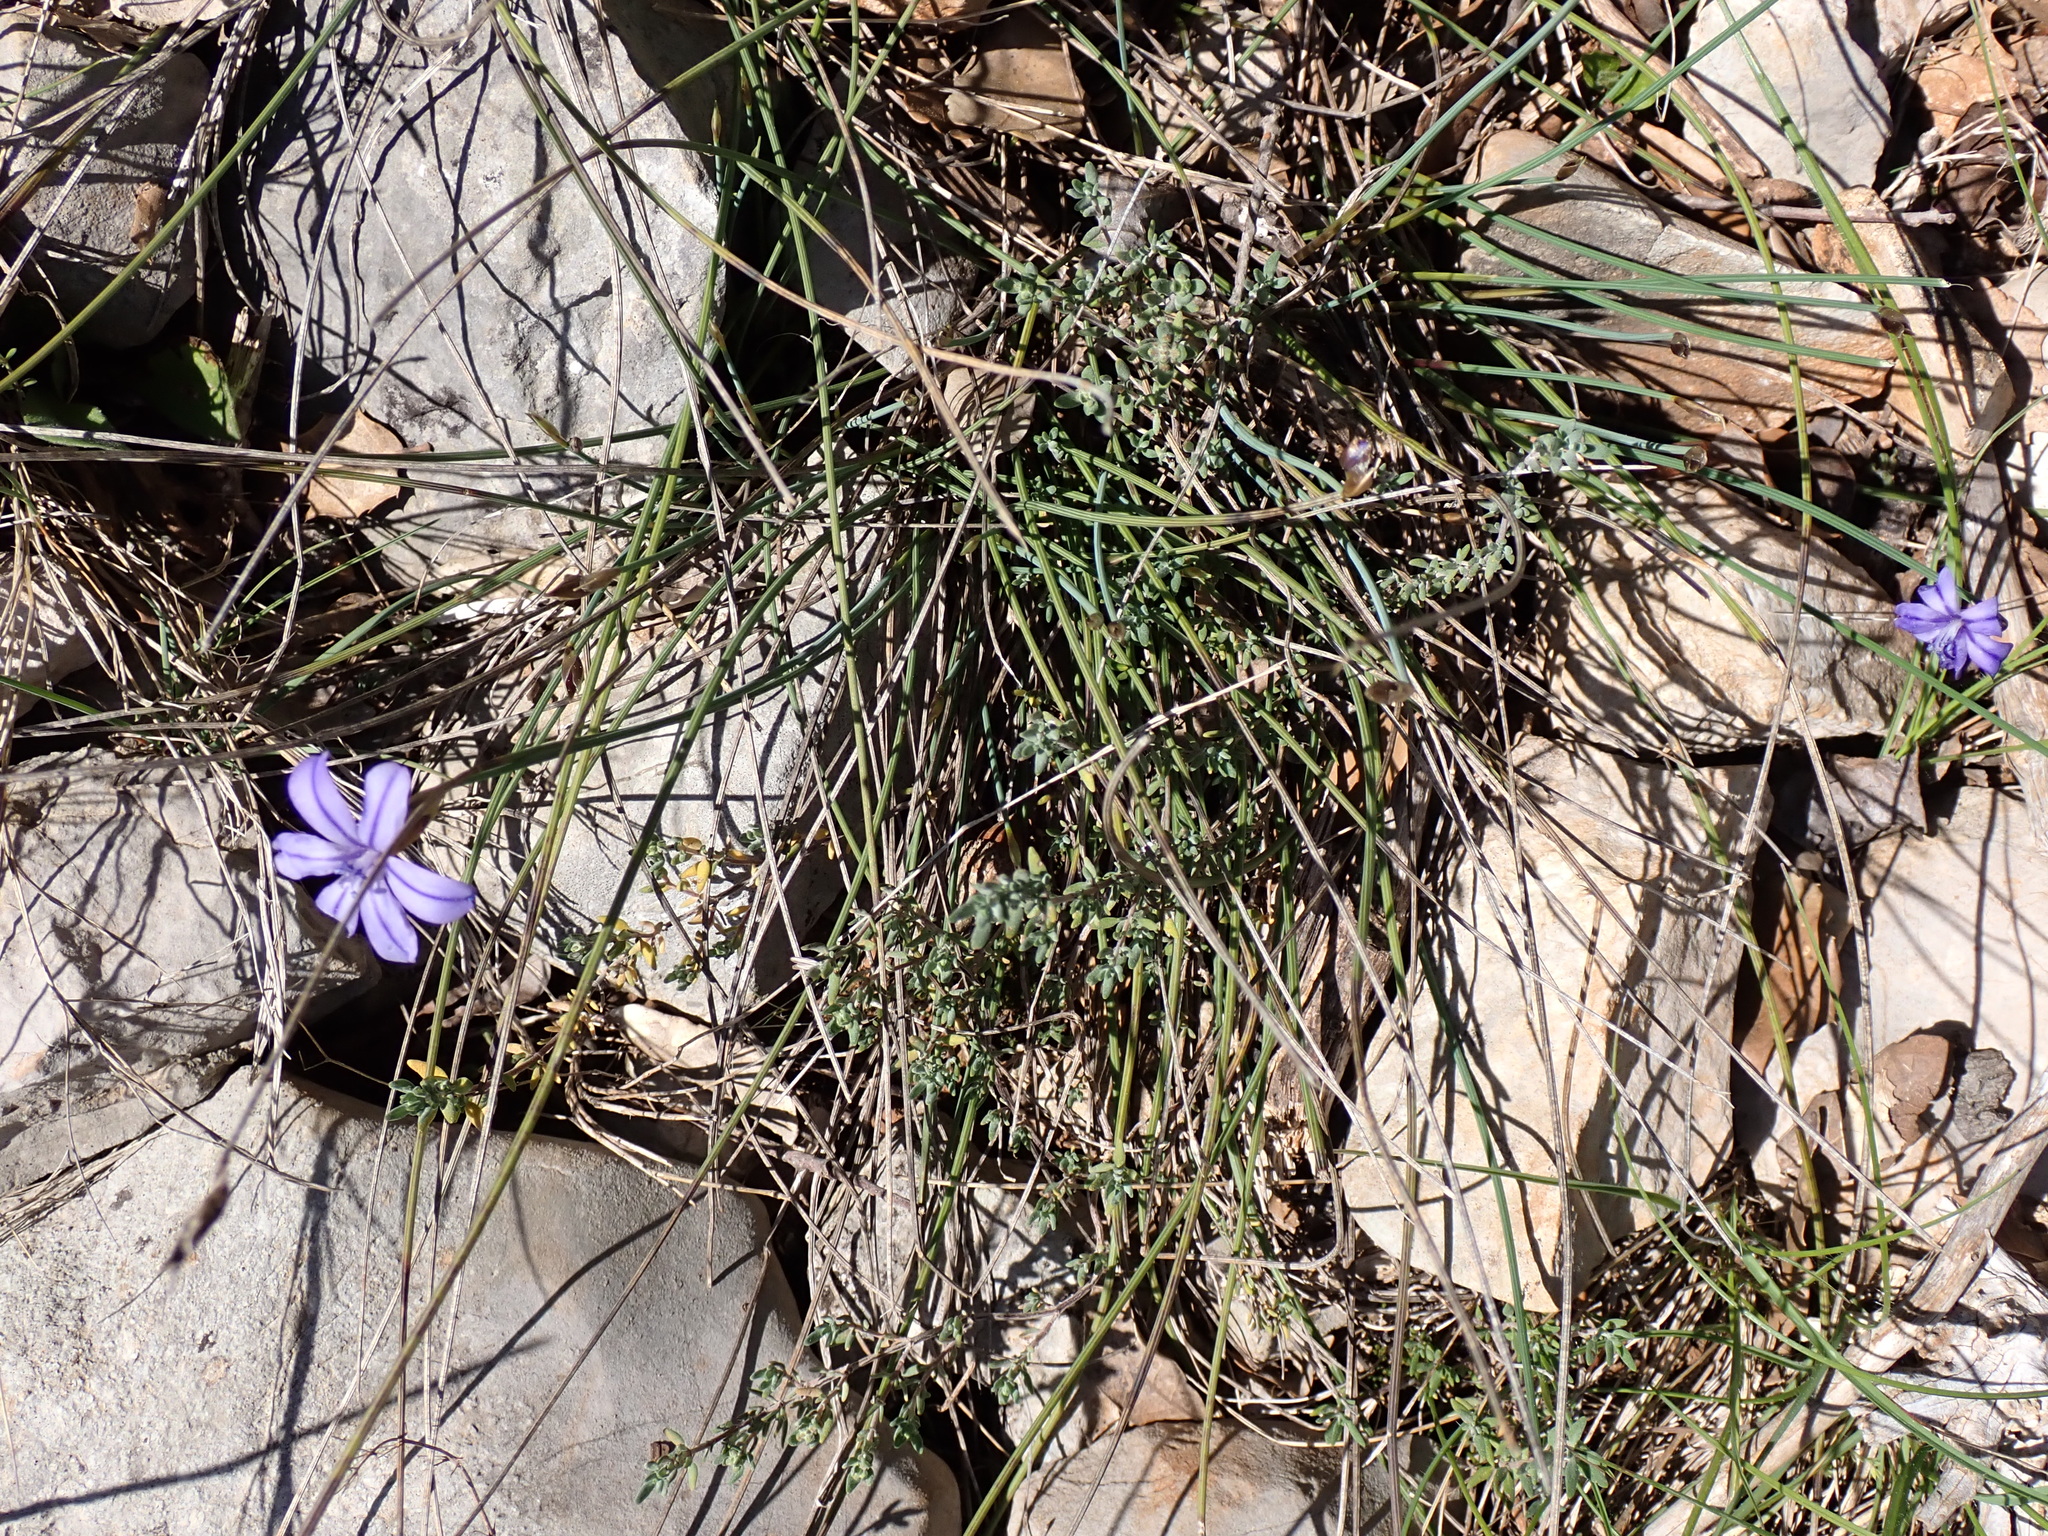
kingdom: Plantae
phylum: Tracheophyta
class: Liliopsida
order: Asparagales
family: Asparagaceae
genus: Aphyllanthes
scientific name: Aphyllanthes monspeliensis
